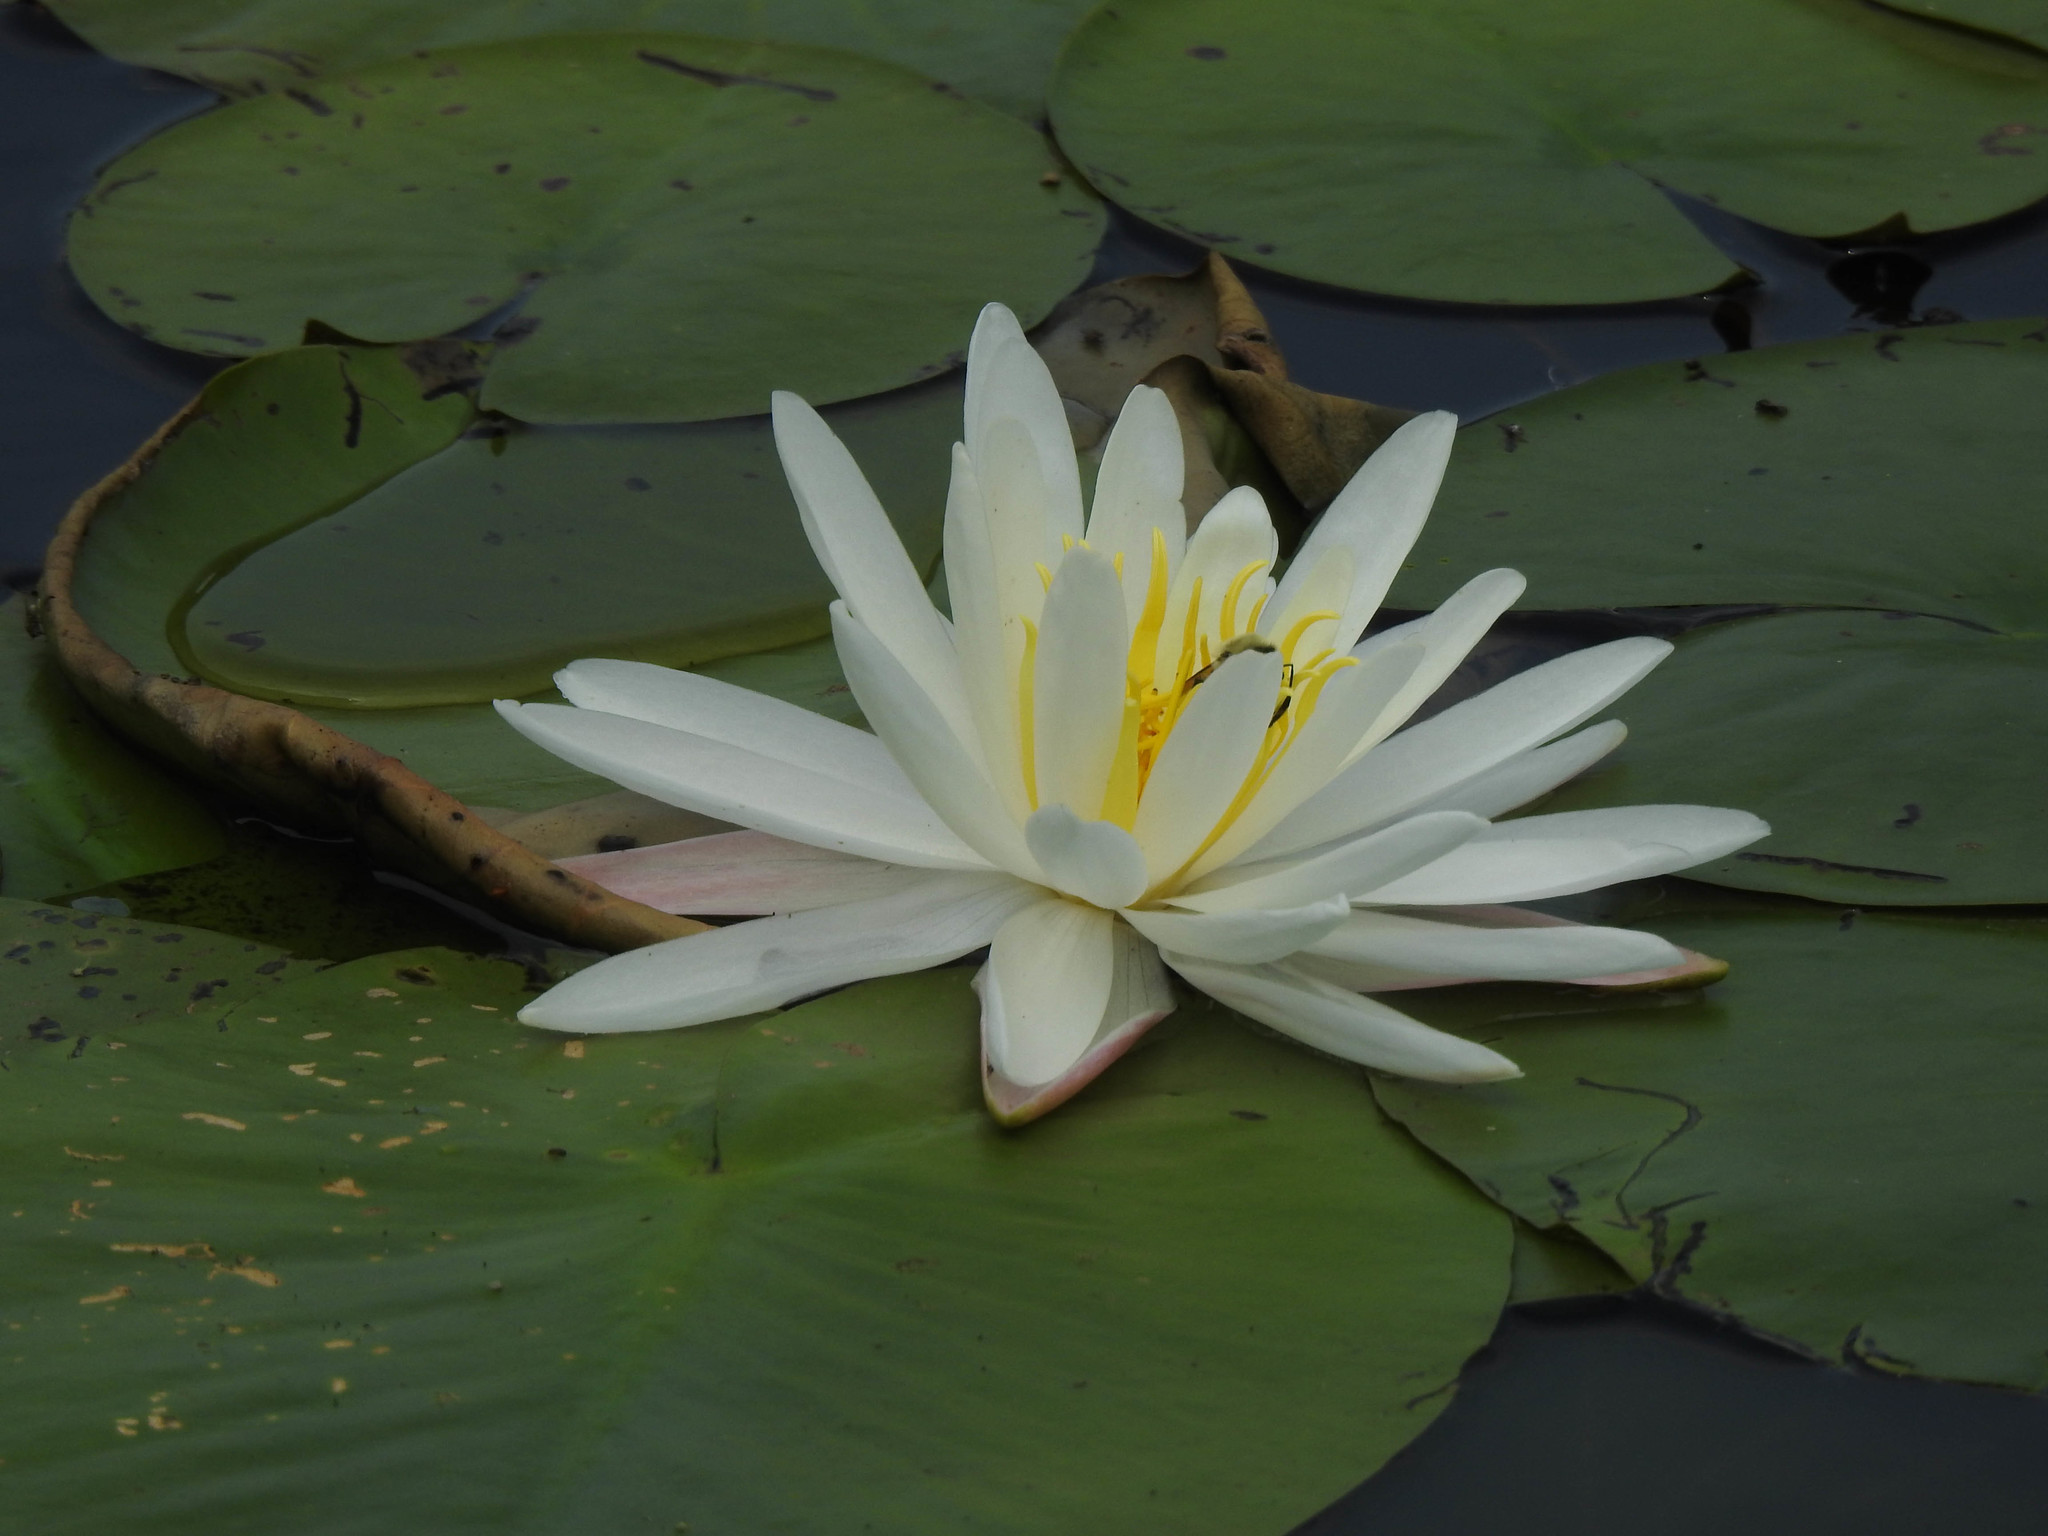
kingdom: Plantae
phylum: Tracheophyta
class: Magnoliopsida
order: Nymphaeales
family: Nymphaeaceae
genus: Nymphaea
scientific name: Nymphaea odorata
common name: Fragrant water-lily
